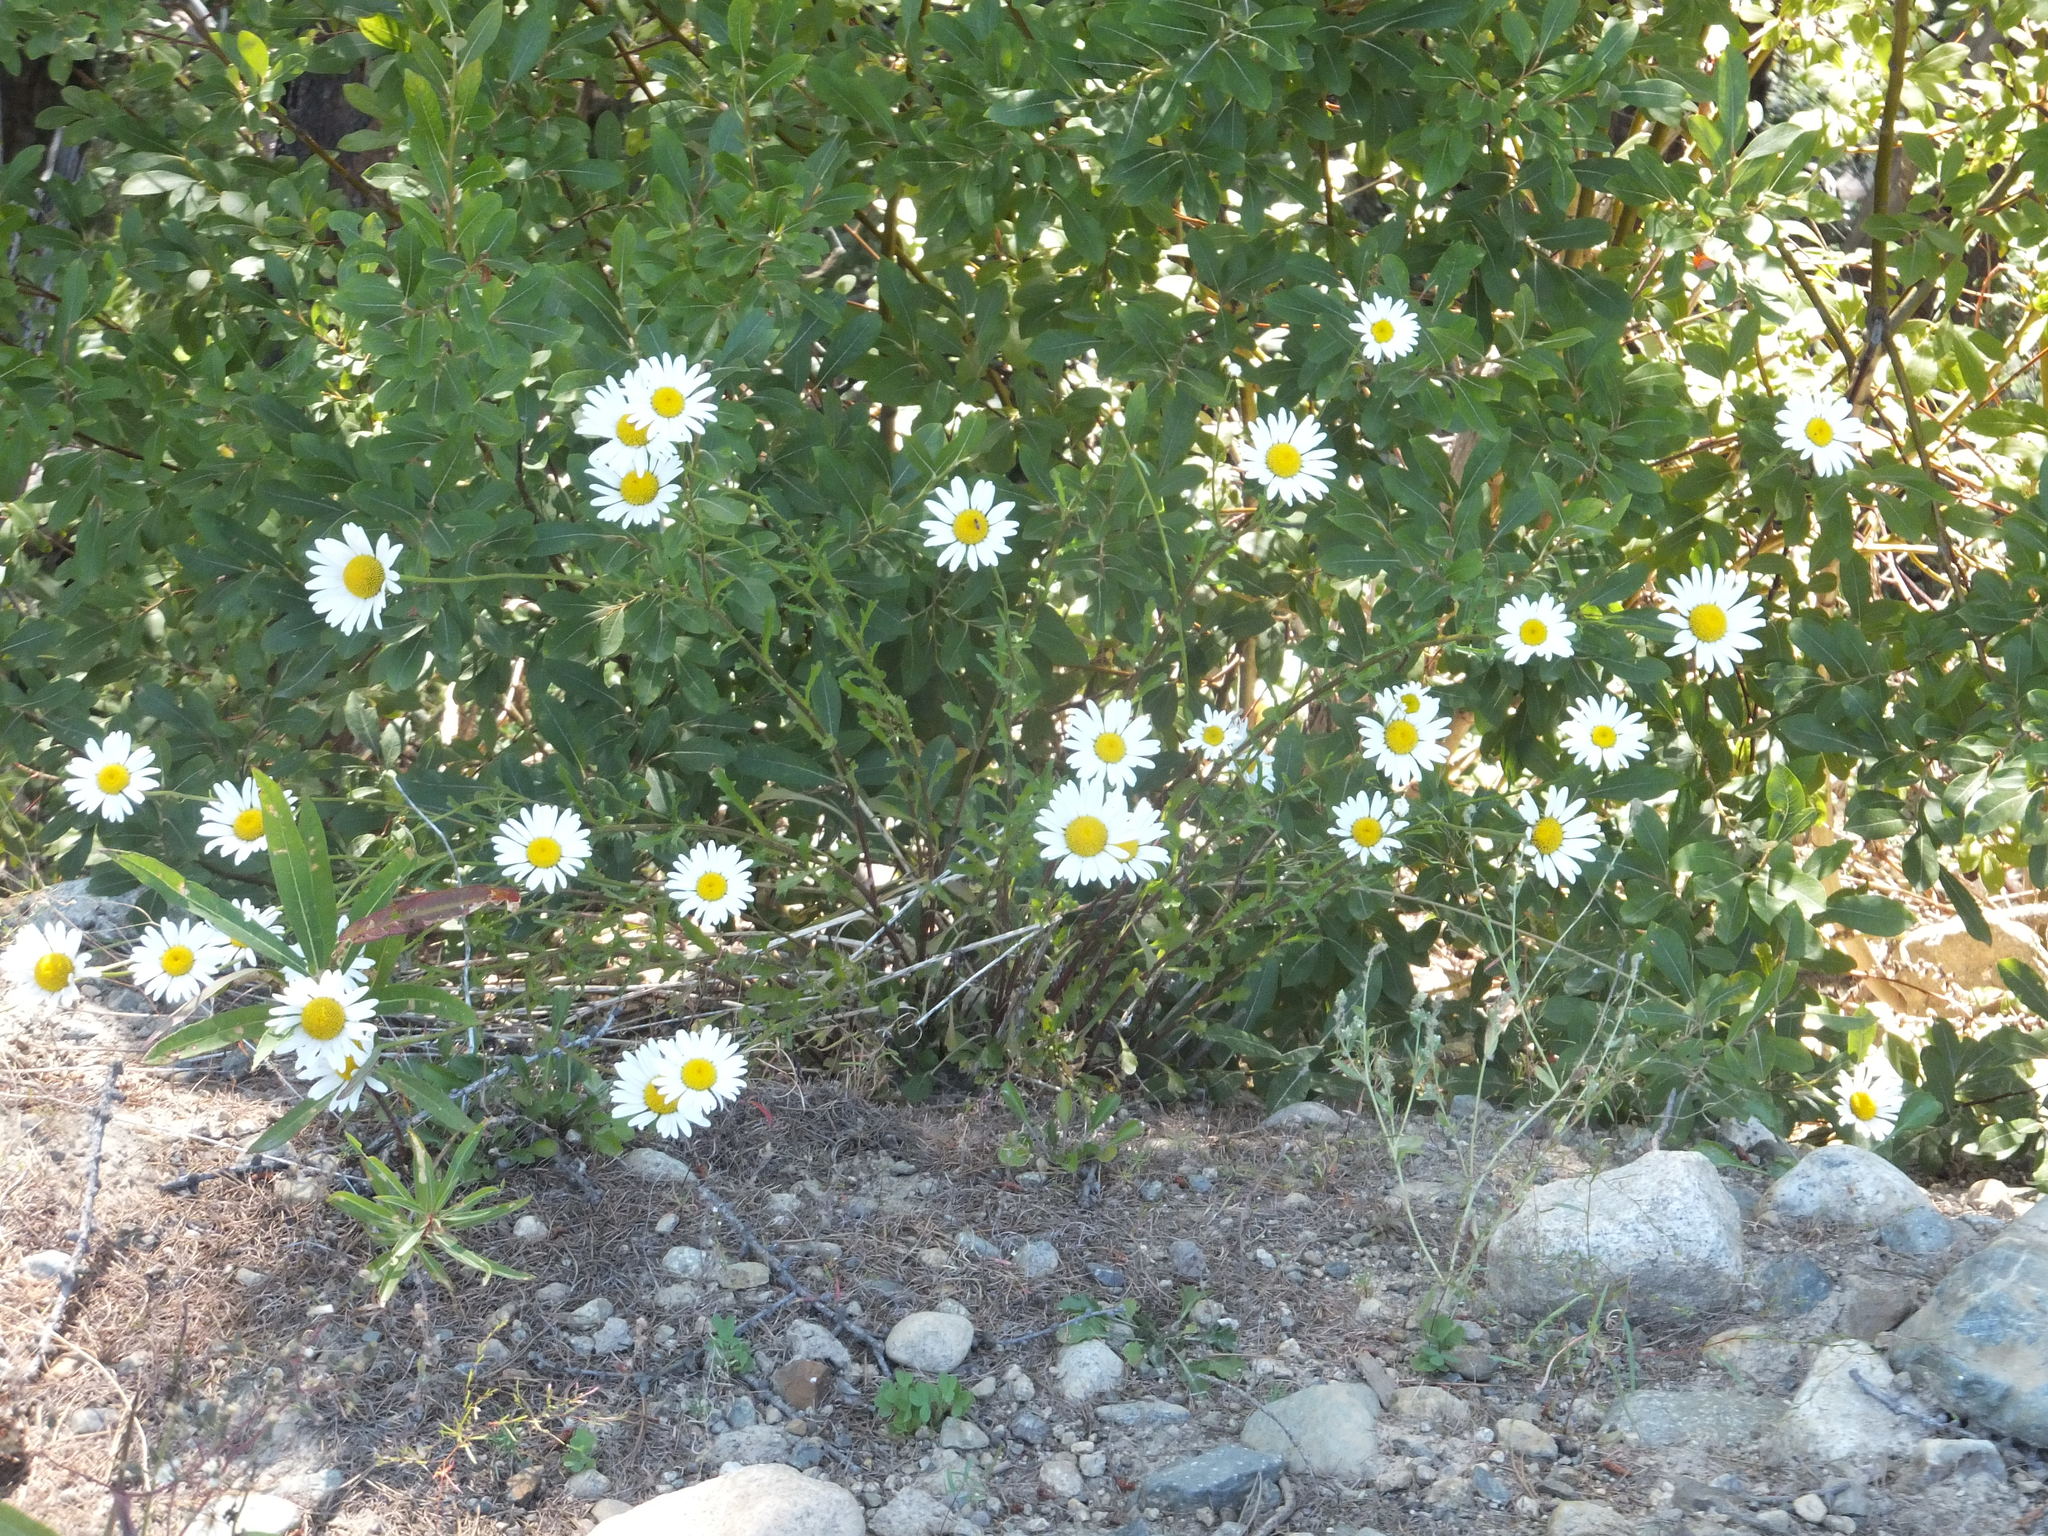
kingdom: Plantae
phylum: Tracheophyta
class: Magnoliopsida
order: Asterales
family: Asteraceae
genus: Leucanthemum
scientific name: Leucanthemum vulgare
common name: Oxeye daisy
